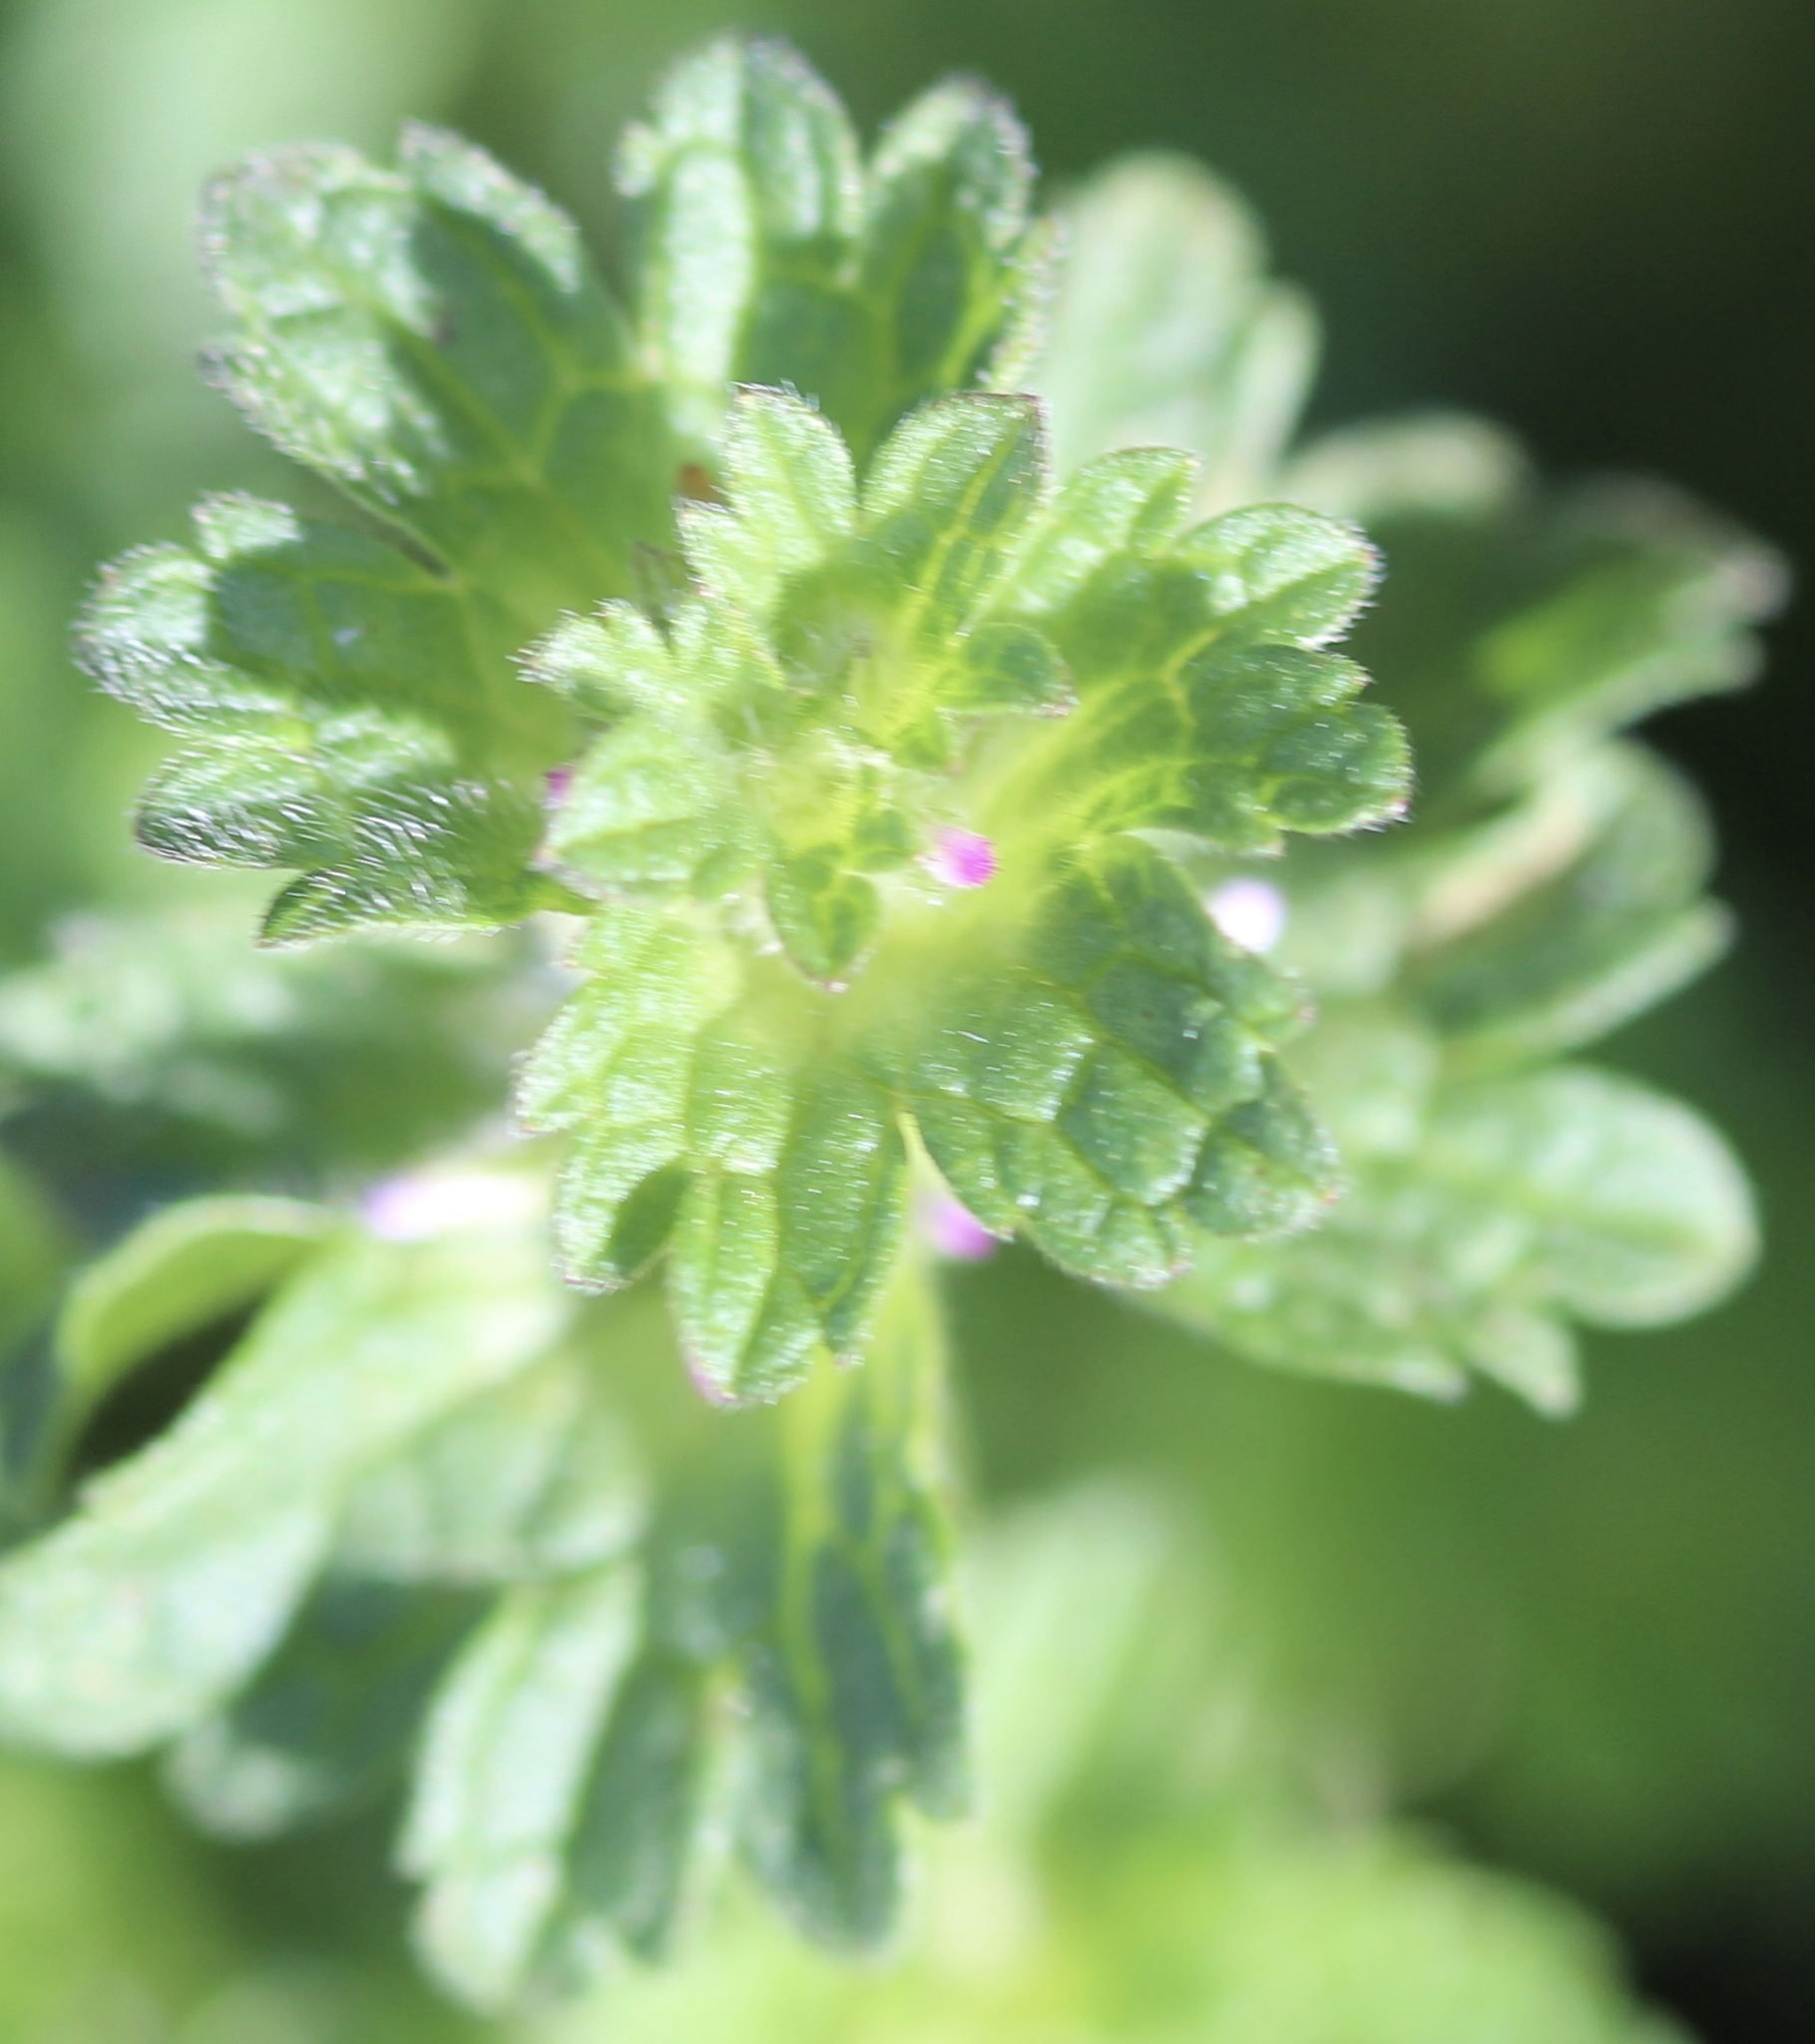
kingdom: Plantae
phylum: Tracheophyta
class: Magnoliopsida
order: Lamiales
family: Lamiaceae
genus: Lamium
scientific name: Lamium amplexicaule
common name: Henbit dead-nettle
